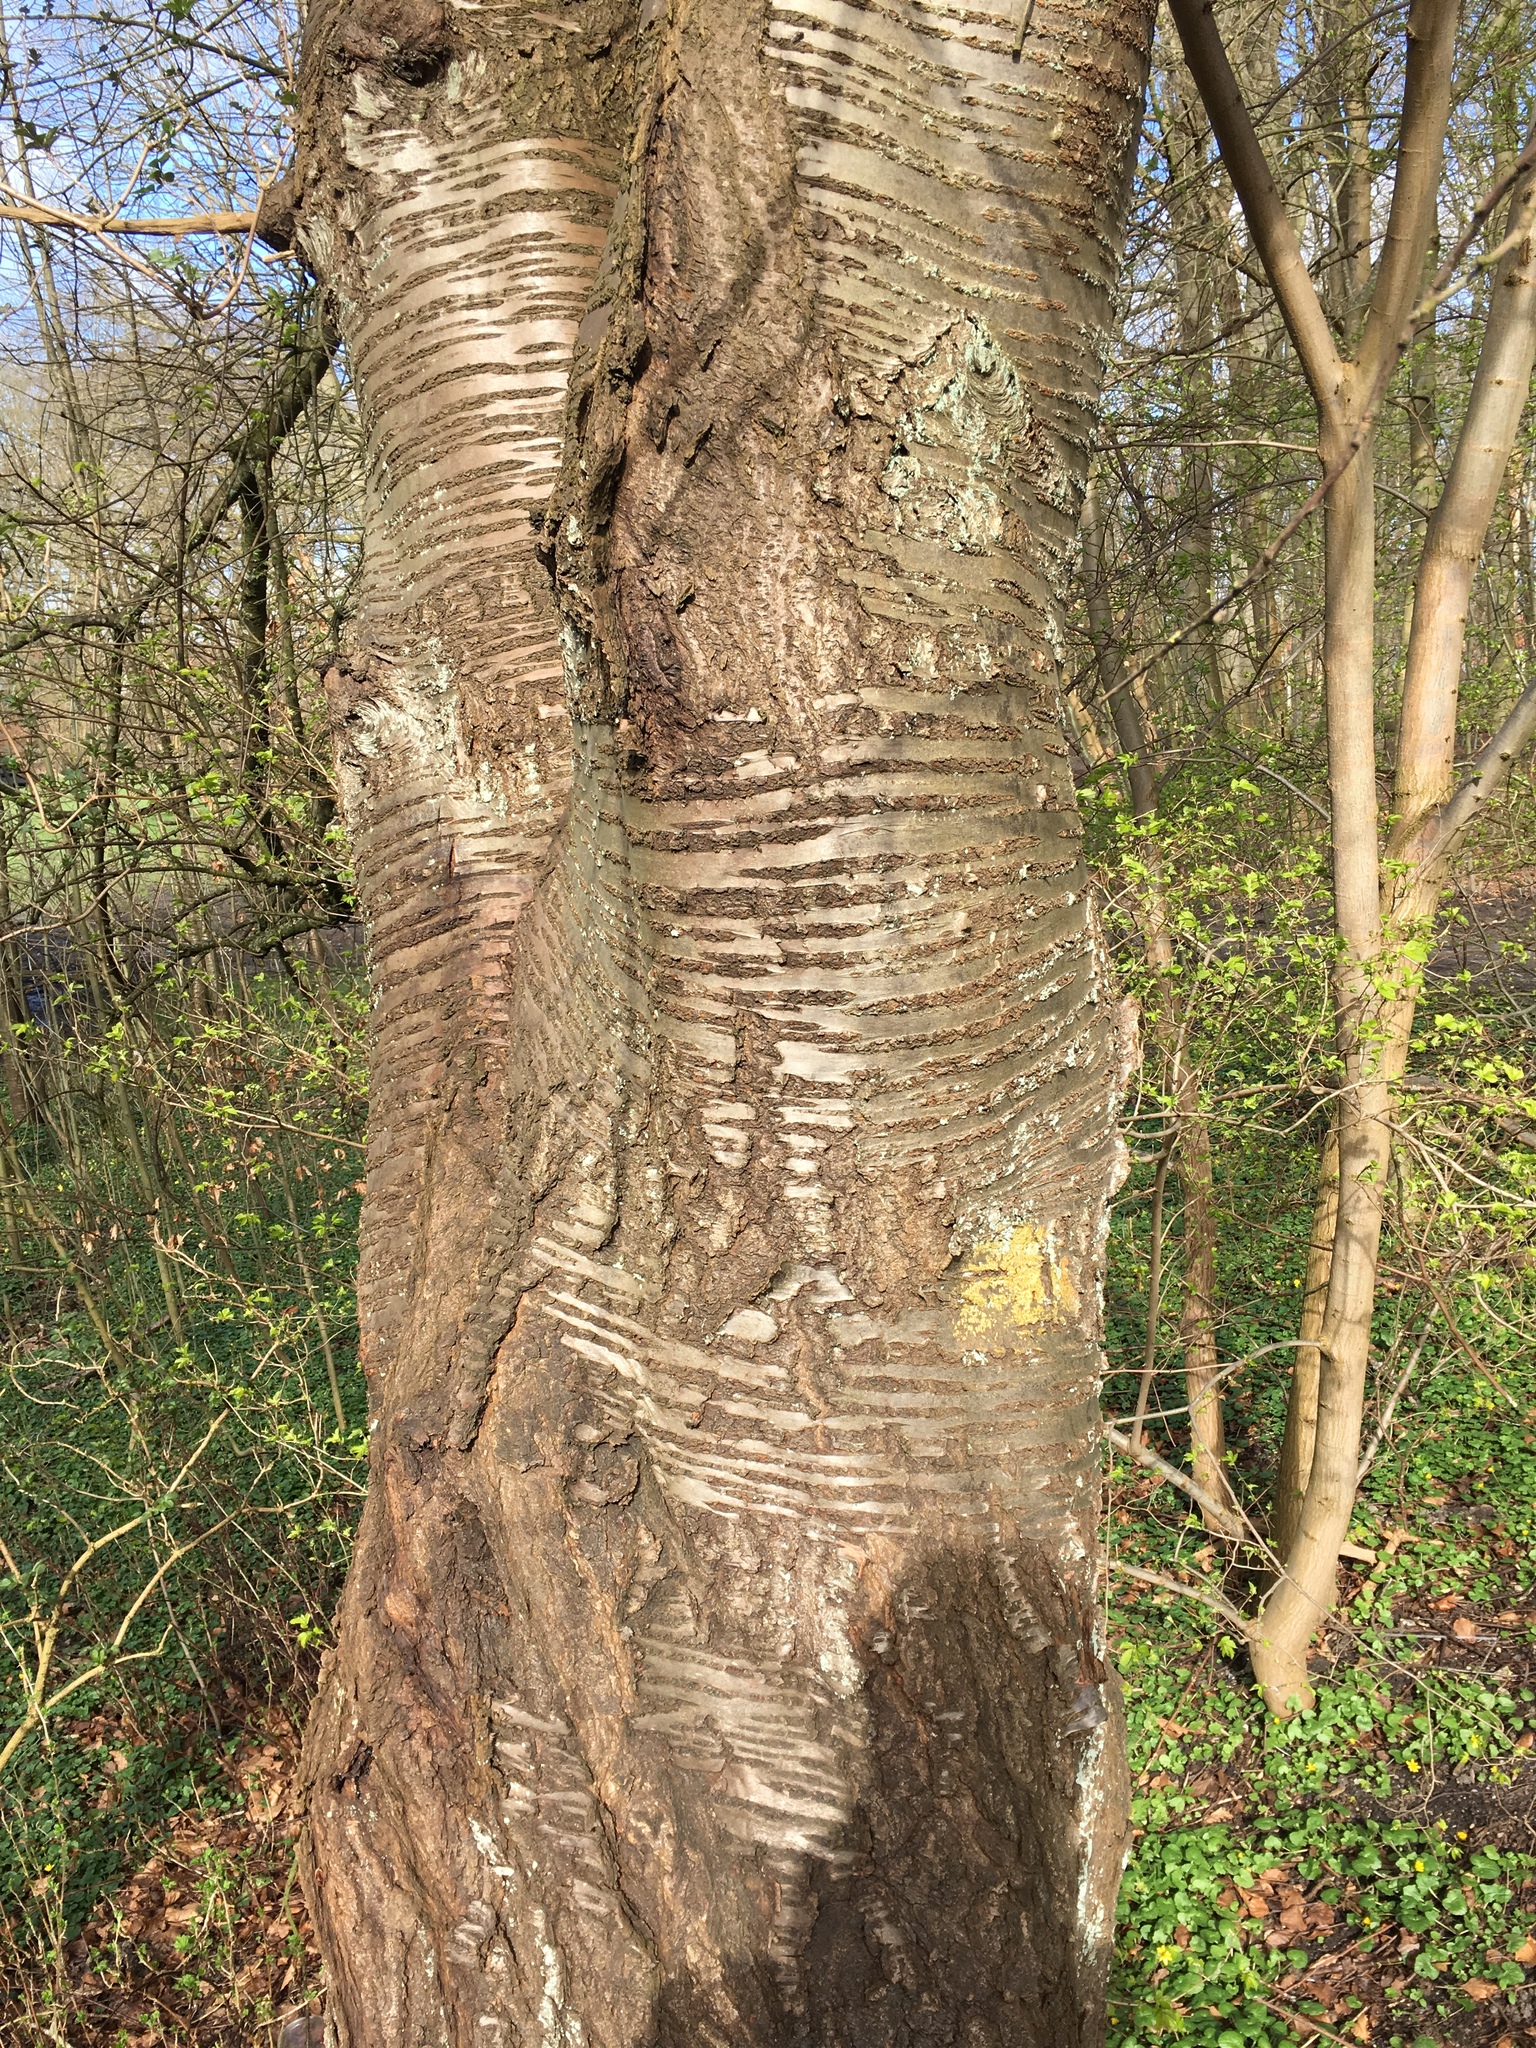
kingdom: Plantae
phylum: Tracheophyta
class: Magnoliopsida
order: Rosales
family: Rosaceae
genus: Prunus
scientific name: Prunus avium
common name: Sweet cherry
